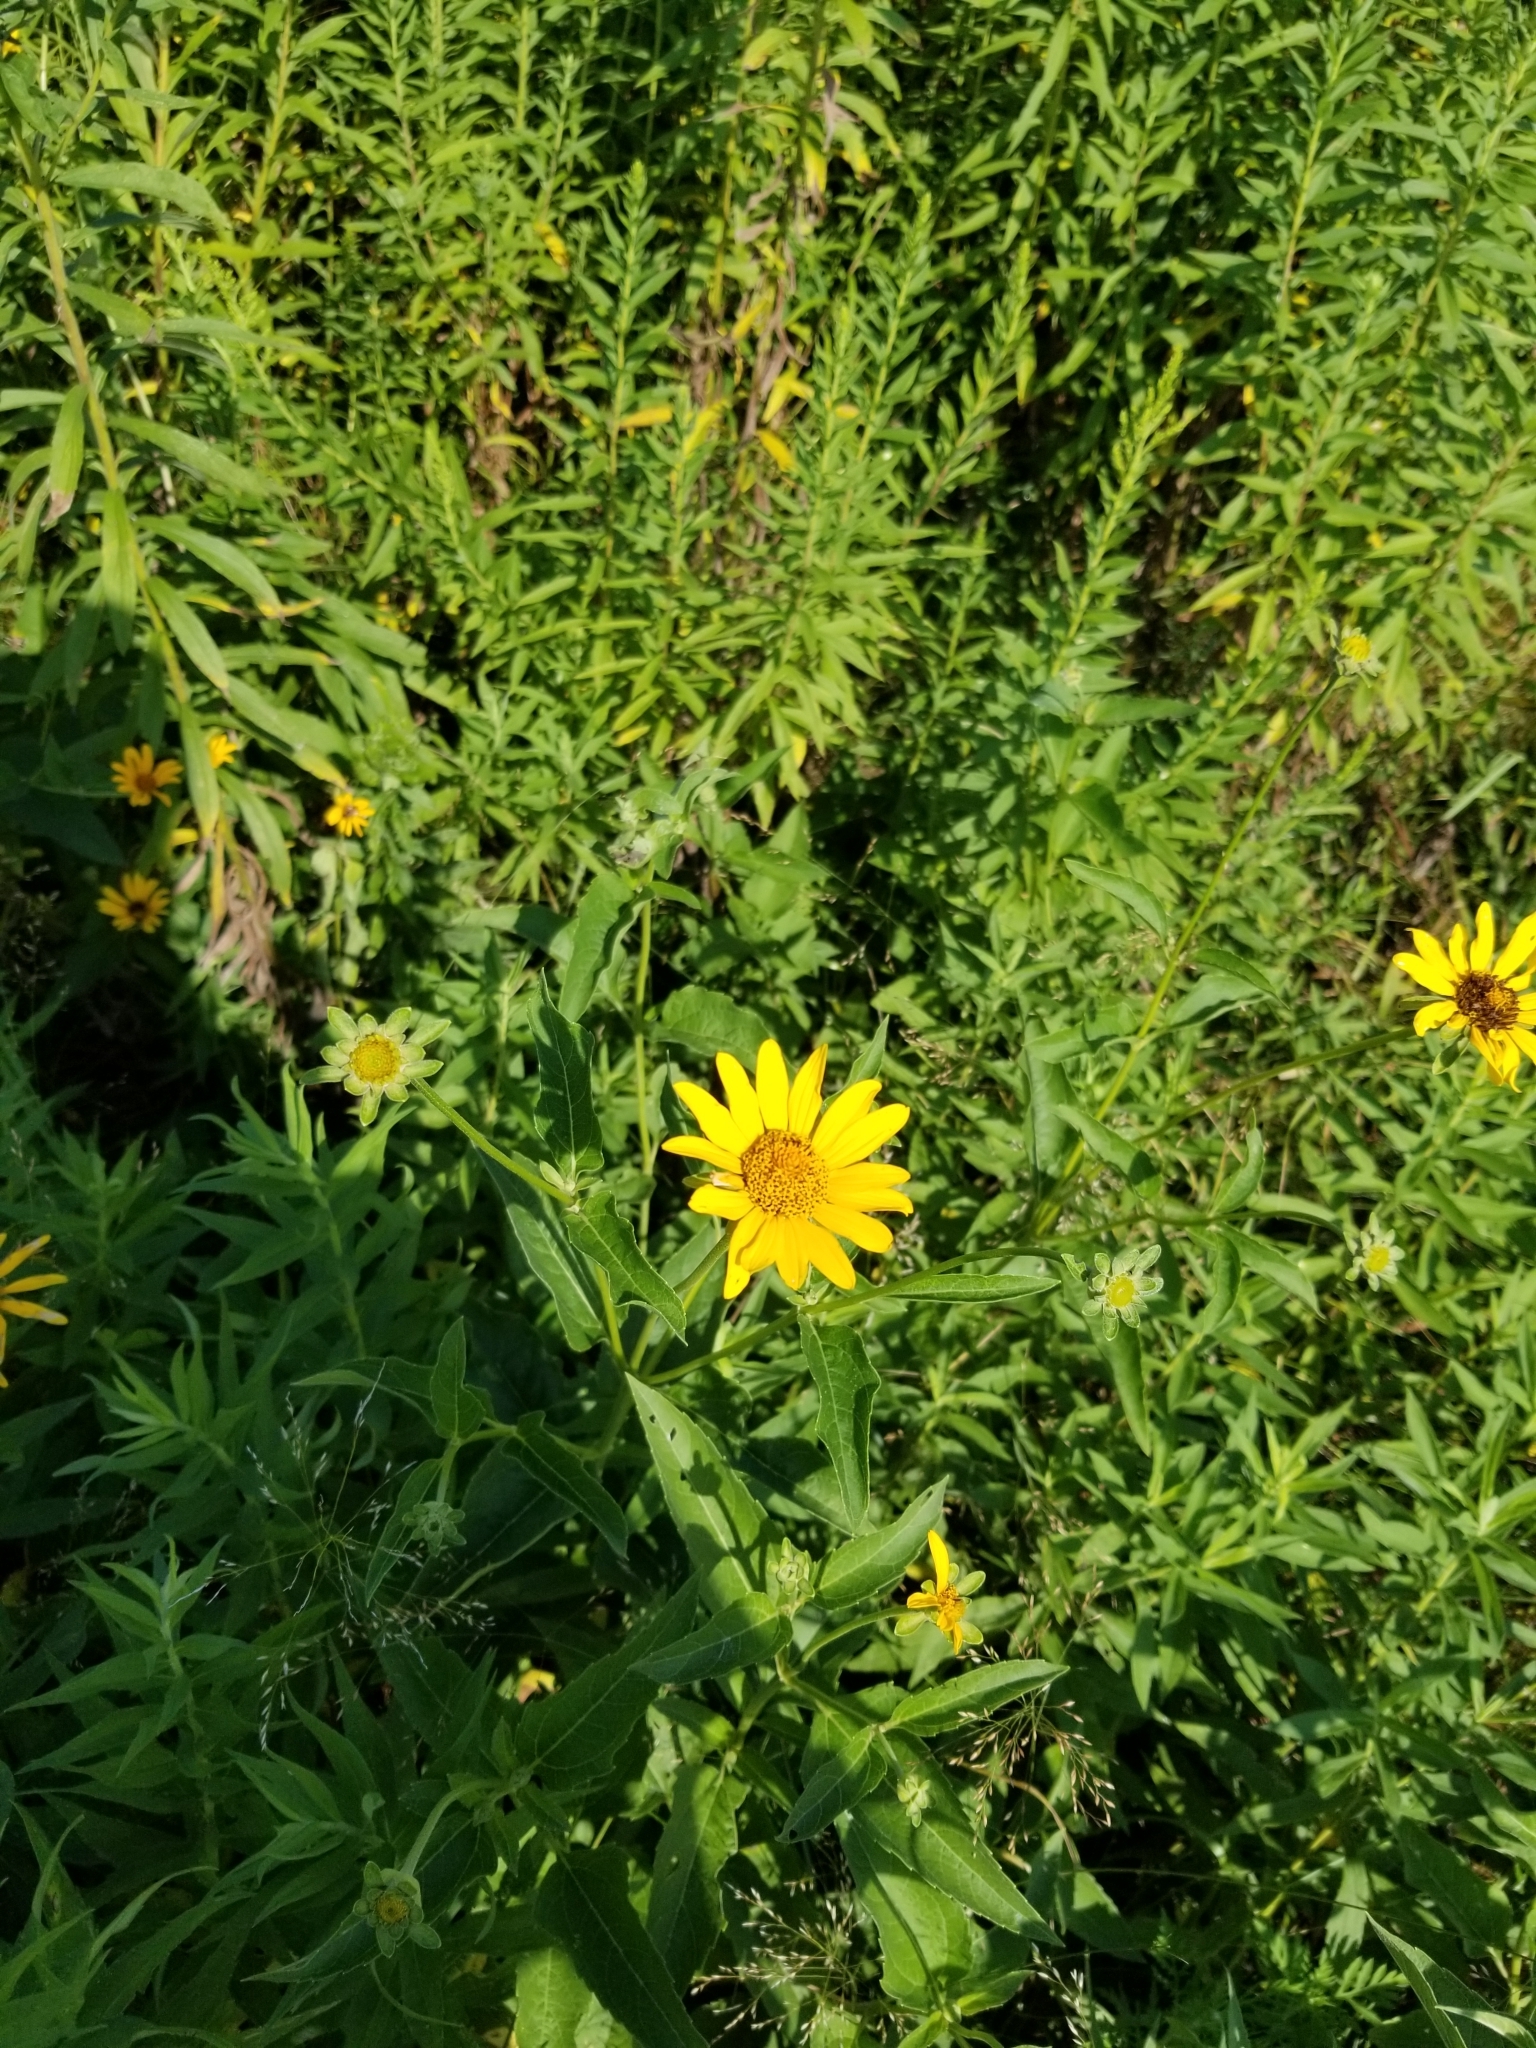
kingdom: Plantae
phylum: Tracheophyta
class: Magnoliopsida
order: Asterales
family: Asteraceae
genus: Heliopsis
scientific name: Heliopsis helianthoides
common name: False sunflower
